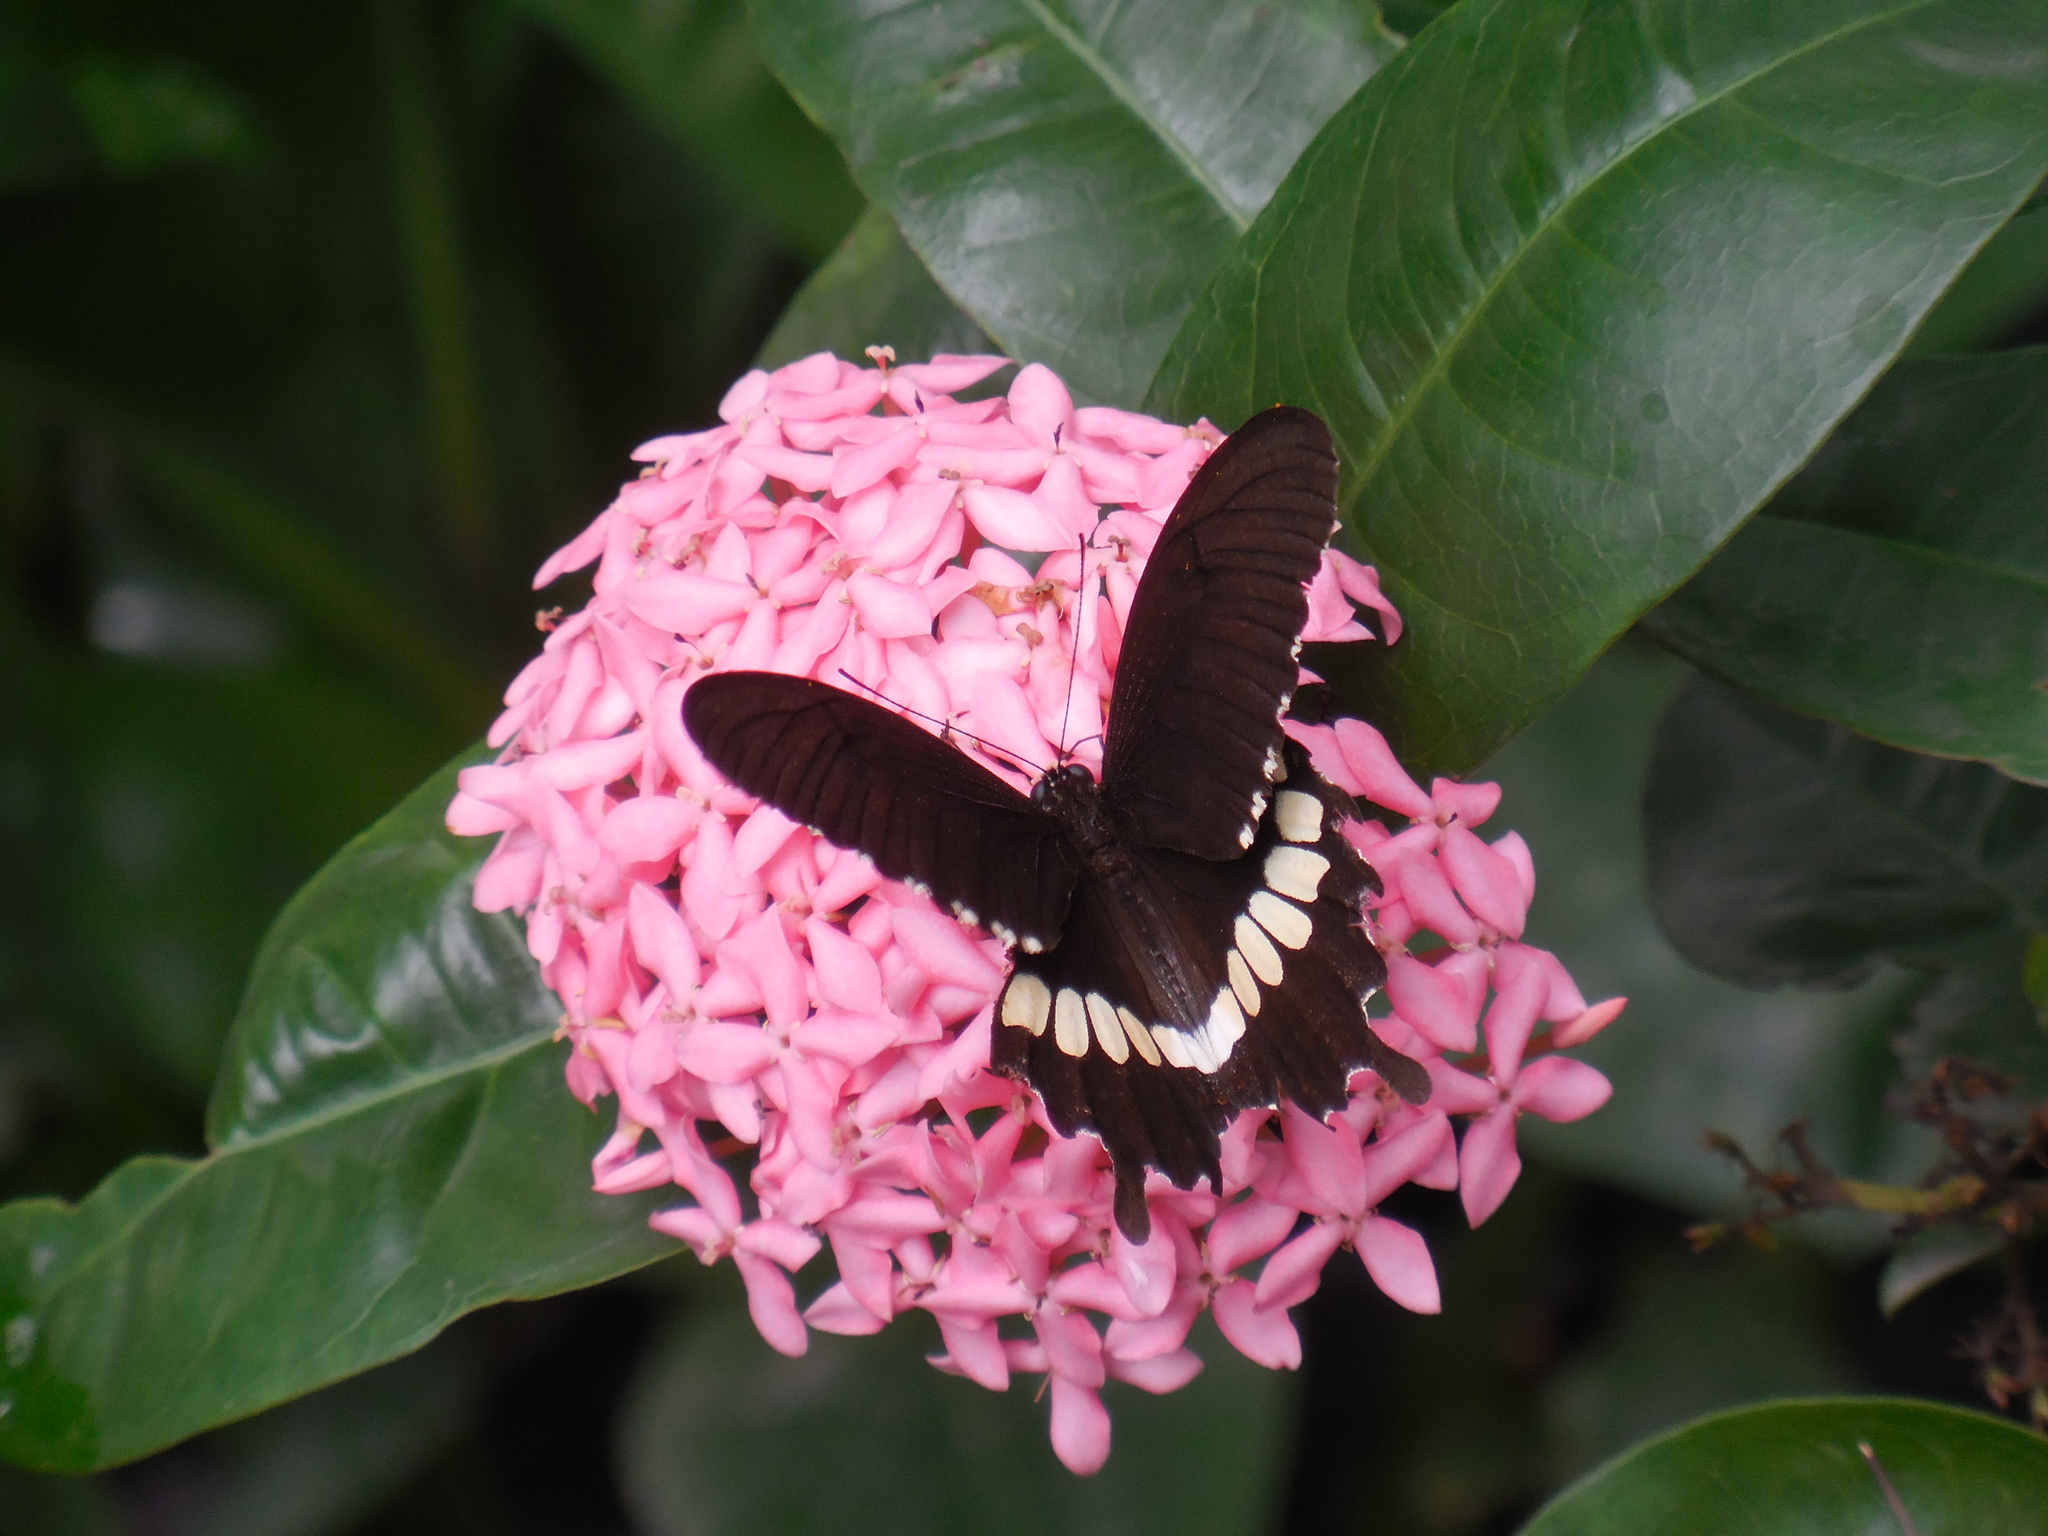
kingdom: Animalia
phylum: Arthropoda
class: Insecta
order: Lepidoptera
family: Papilionidae
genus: Papilio
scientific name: Papilio polytes
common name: Common mormon
